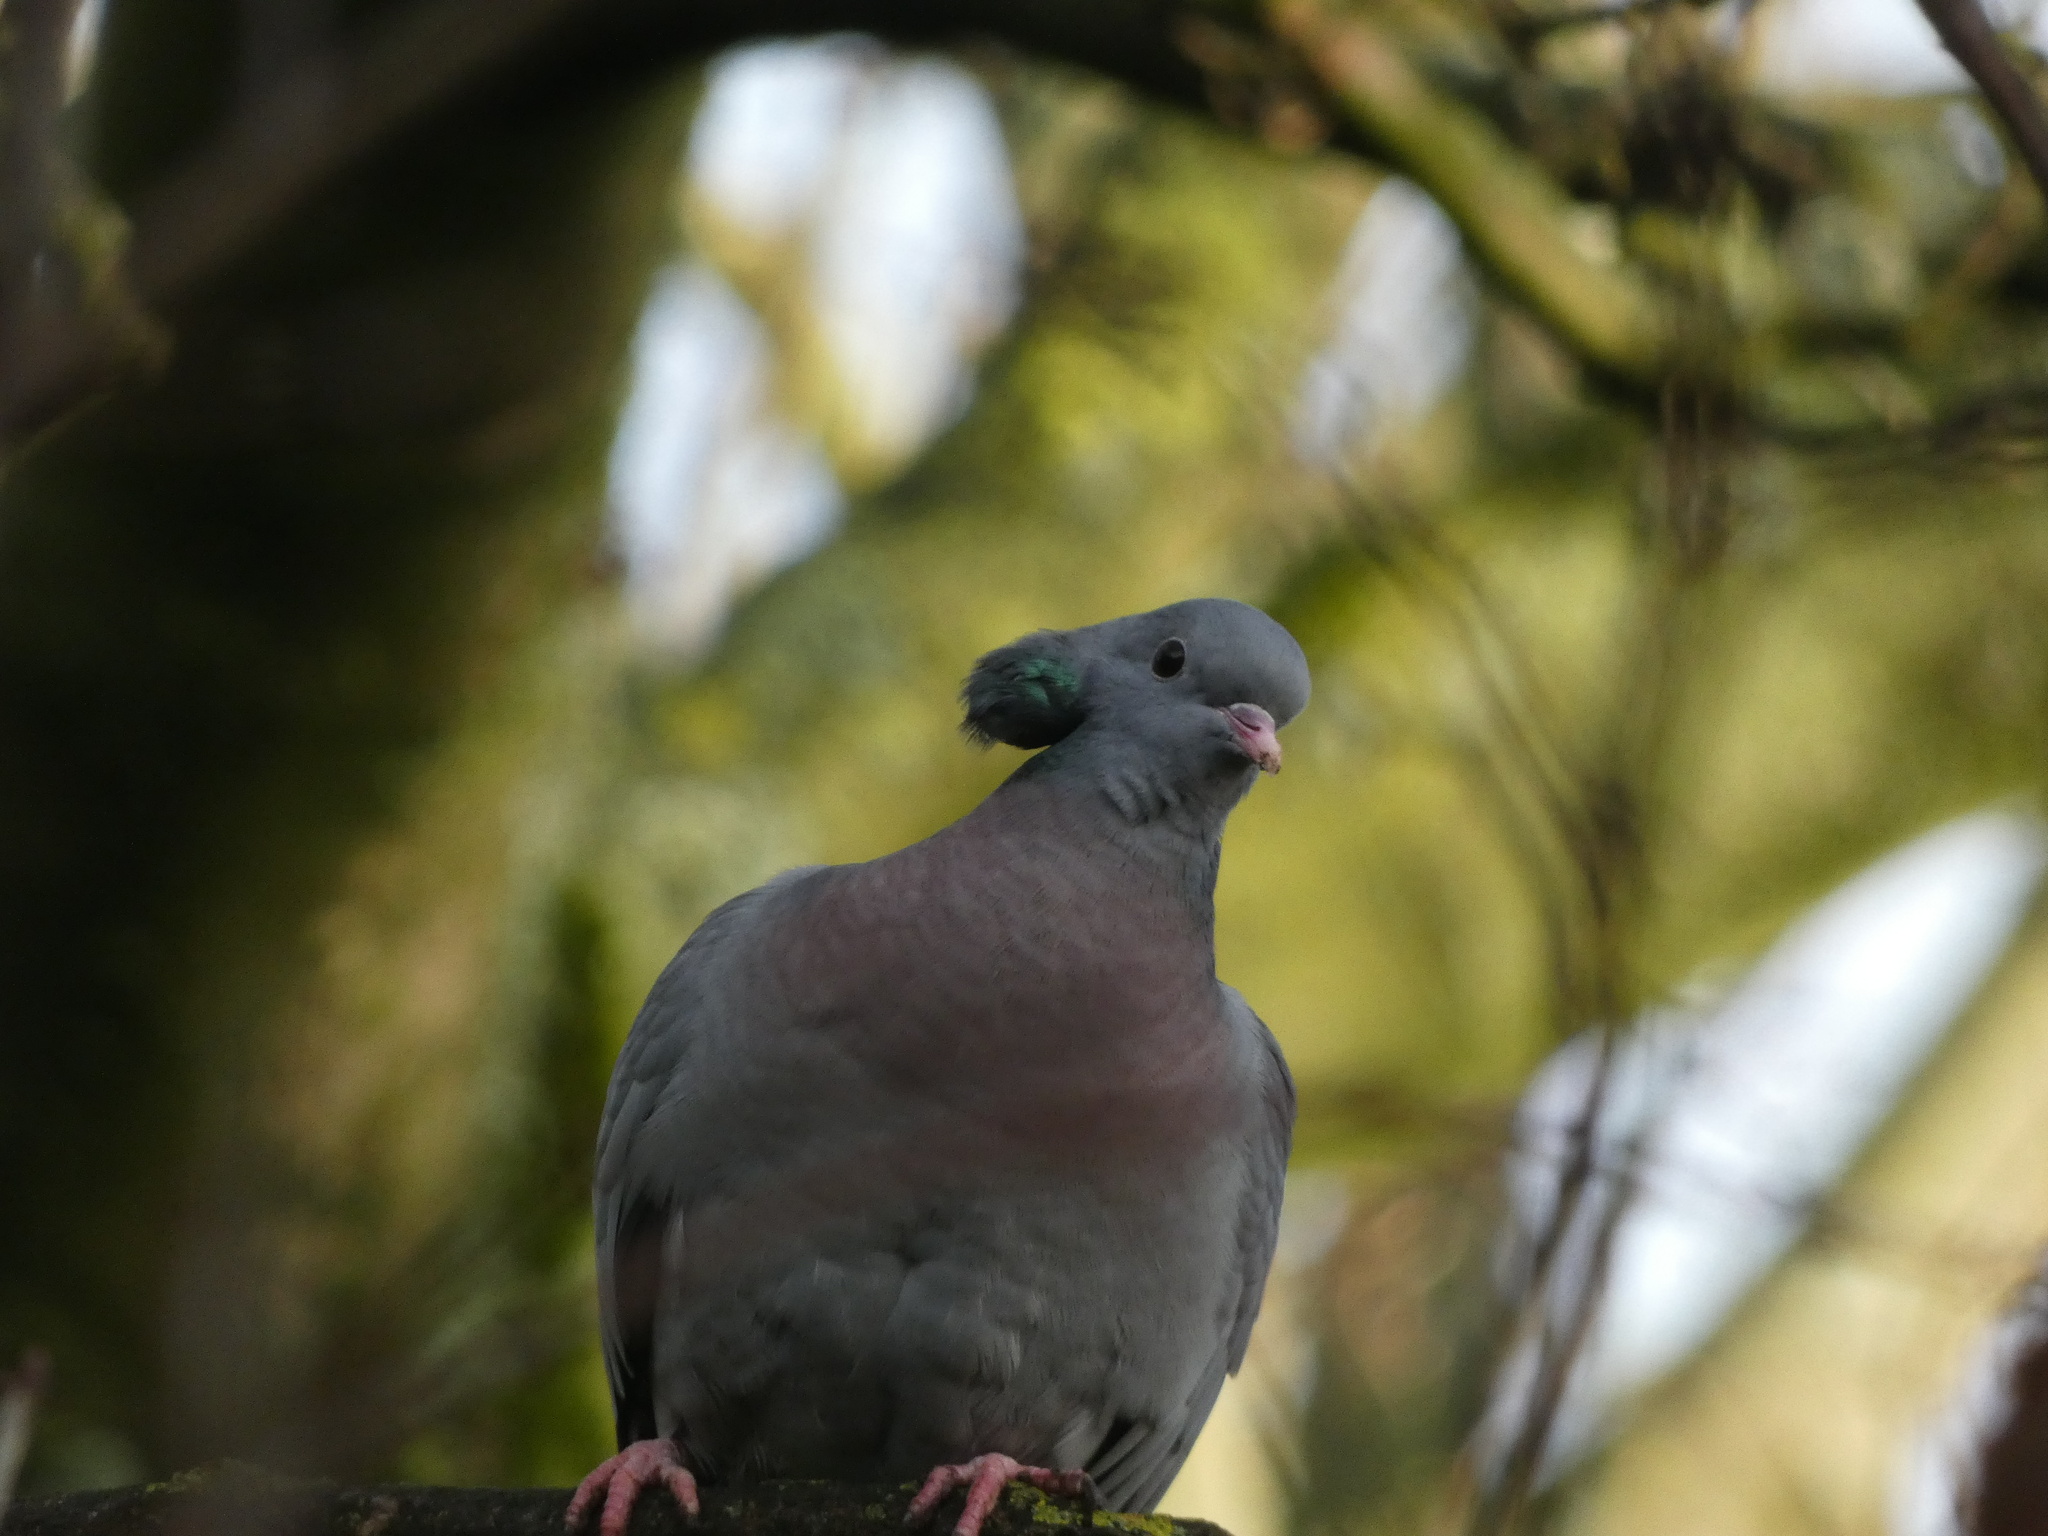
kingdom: Animalia
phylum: Chordata
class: Aves
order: Columbiformes
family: Columbidae
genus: Columba
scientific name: Columba oenas
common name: Stock dove
